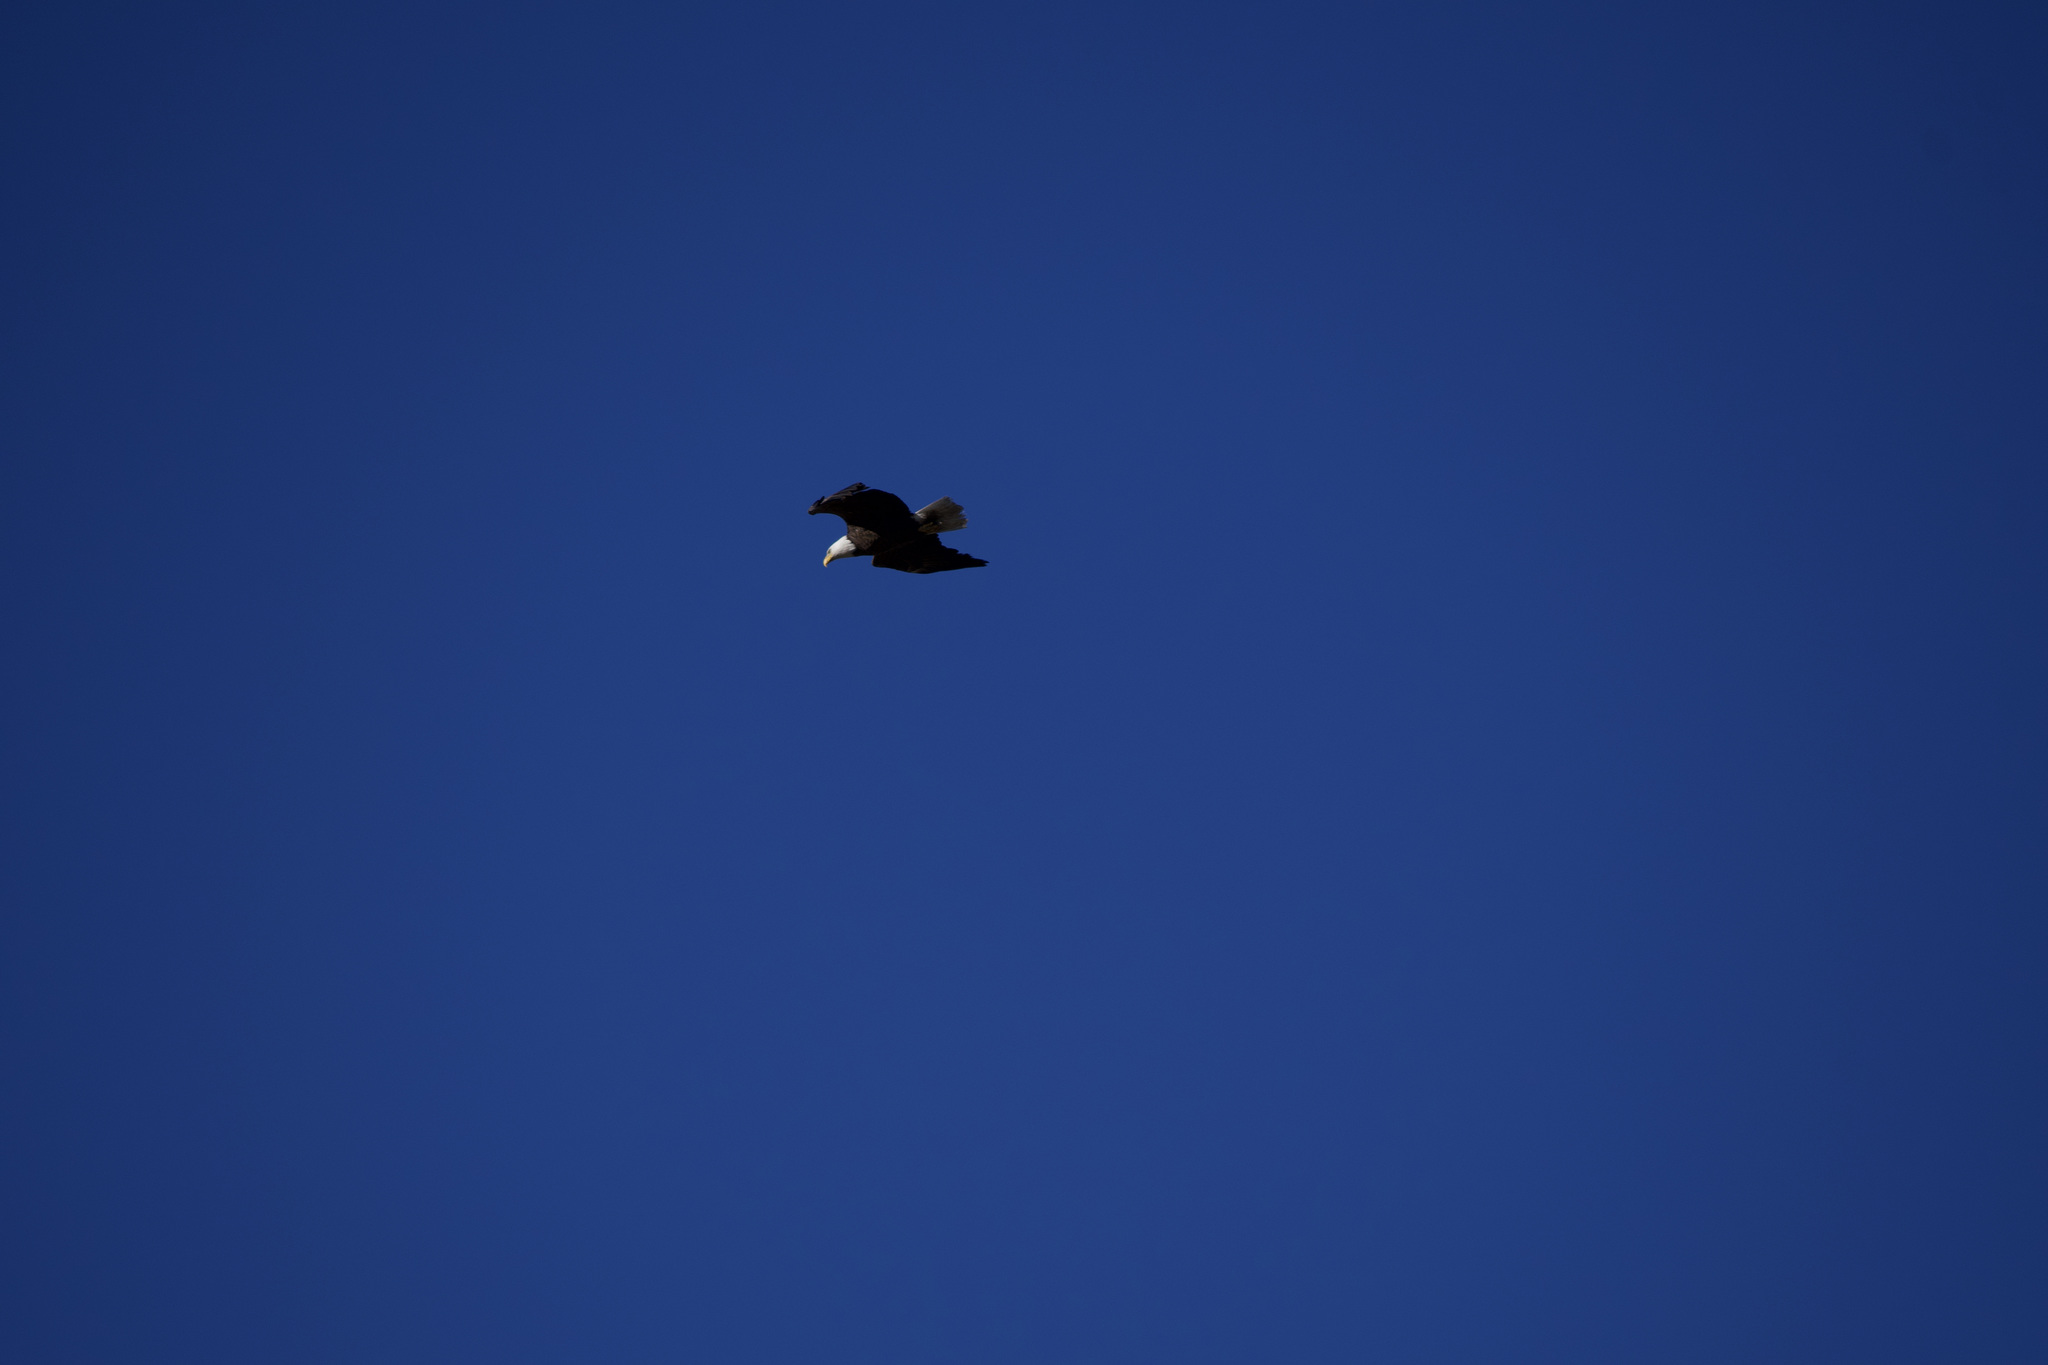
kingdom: Animalia
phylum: Chordata
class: Aves
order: Accipitriformes
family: Accipitridae
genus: Haliaeetus
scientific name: Haliaeetus leucocephalus
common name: Bald eagle
